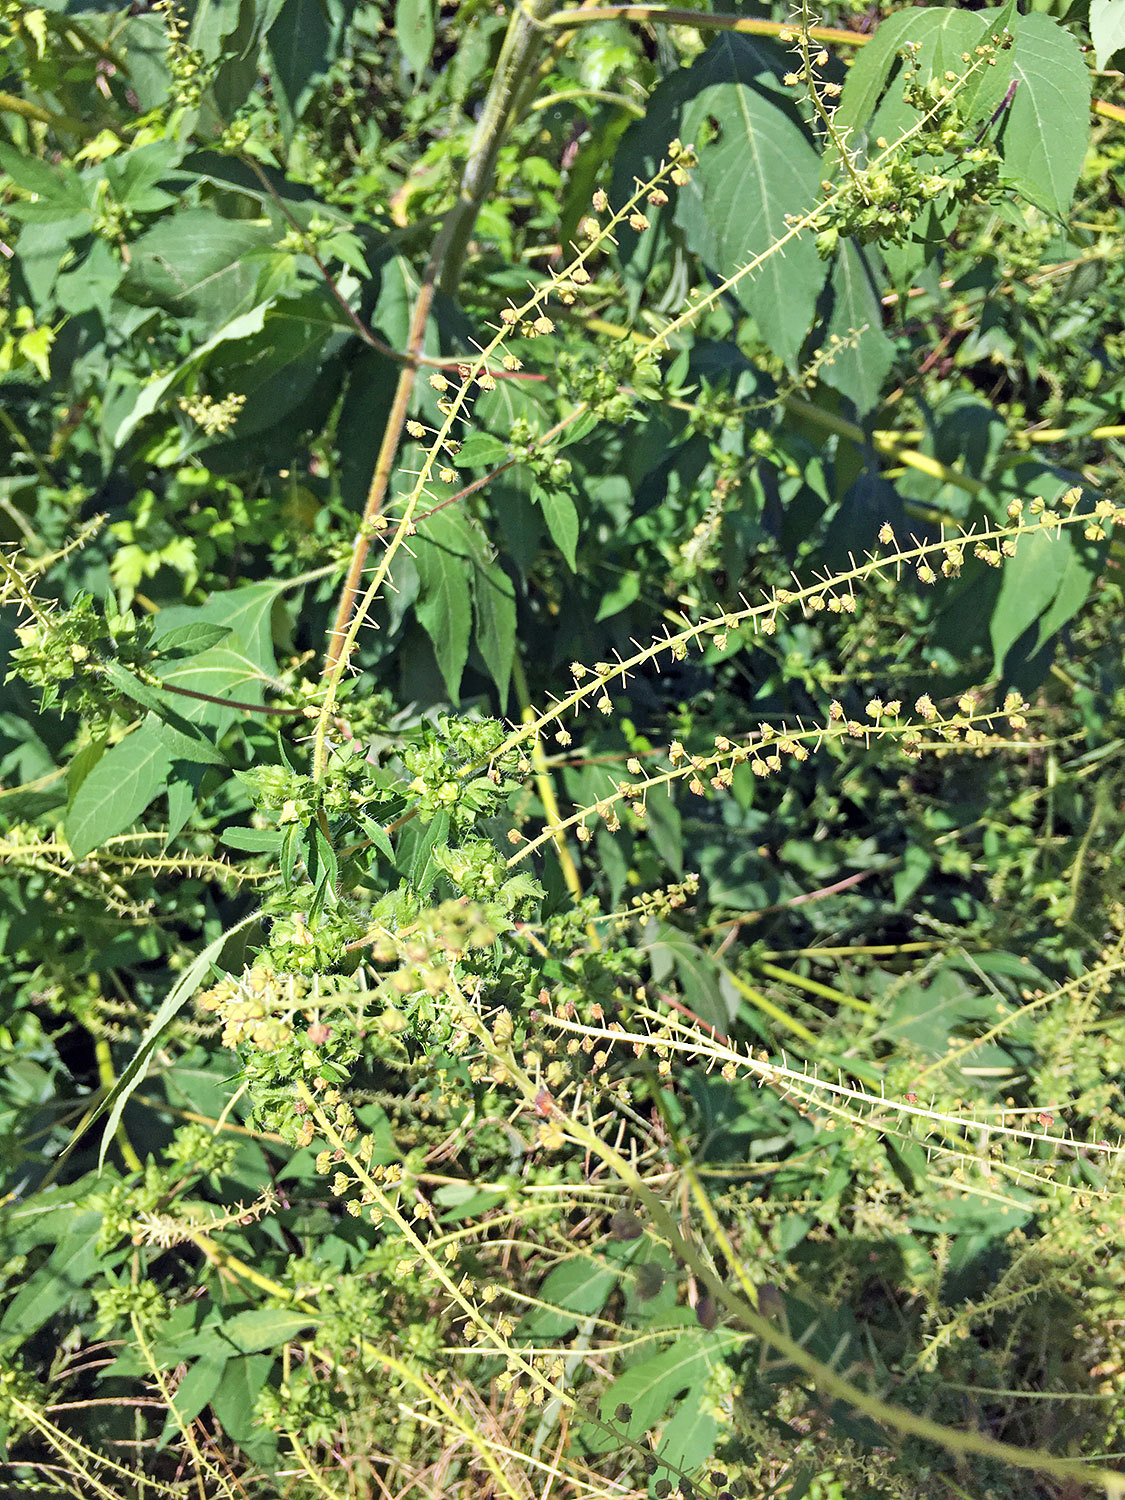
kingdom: Plantae
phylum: Tracheophyta
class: Magnoliopsida
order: Asterales
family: Asteraceae
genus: Ambrosia
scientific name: Ambrosia trifida
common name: Giant ragweed
